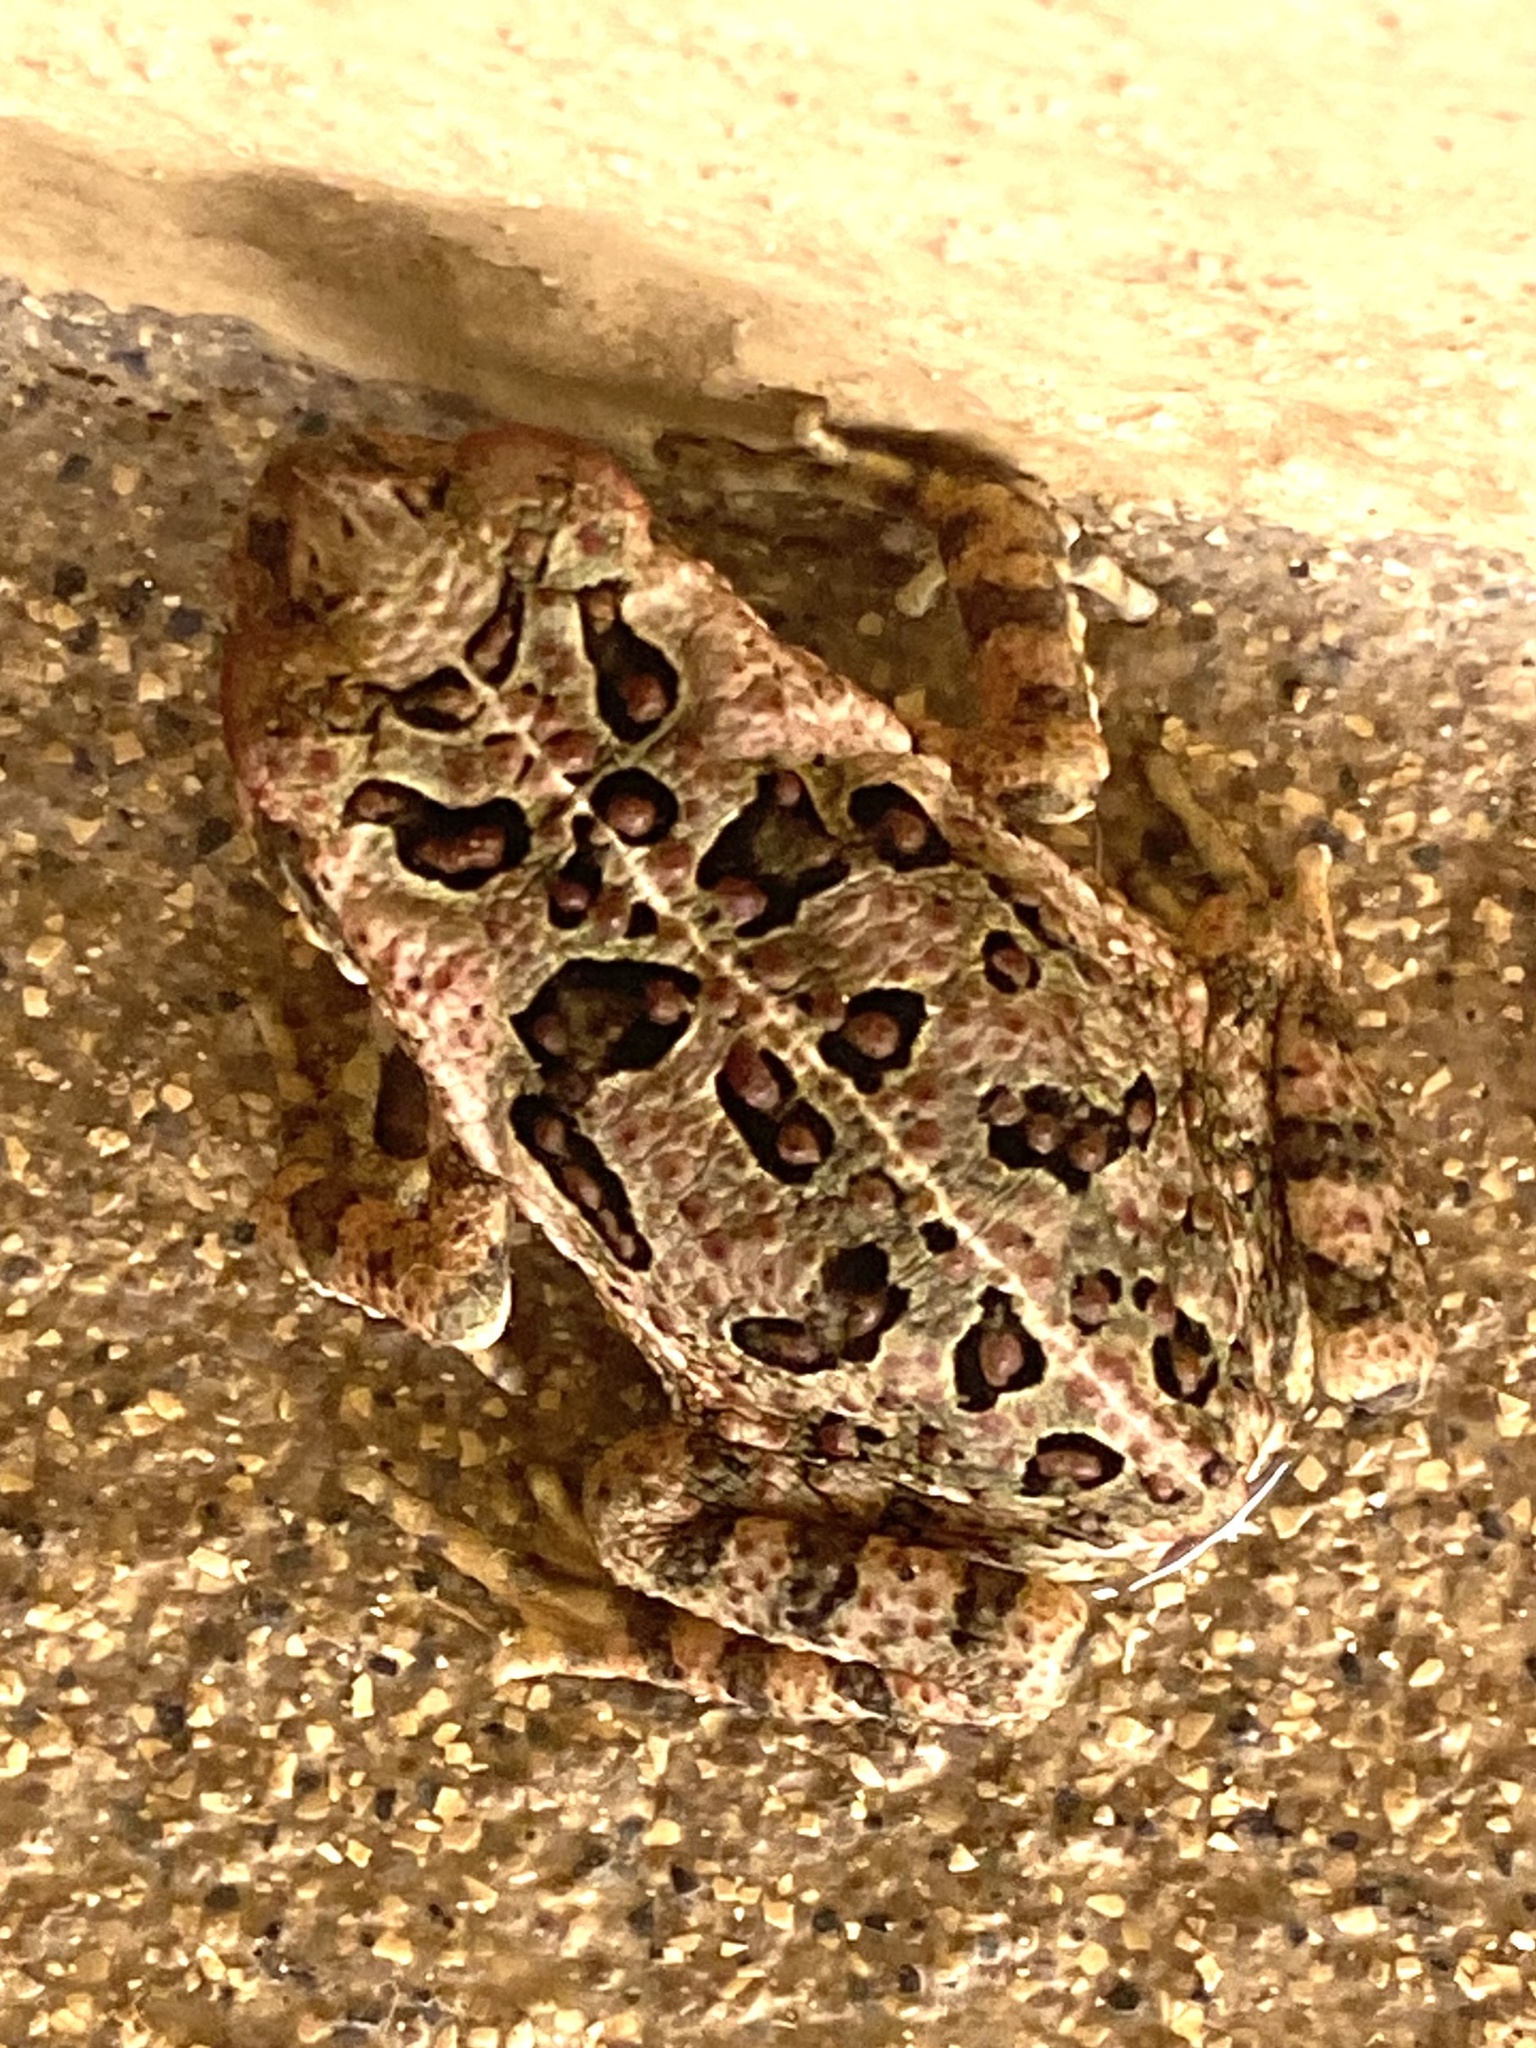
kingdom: Animalia
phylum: Chordata
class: Amphibia
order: Anura
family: Bufonidae
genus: Rhinella
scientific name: Rhinella marina
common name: Cane toad
